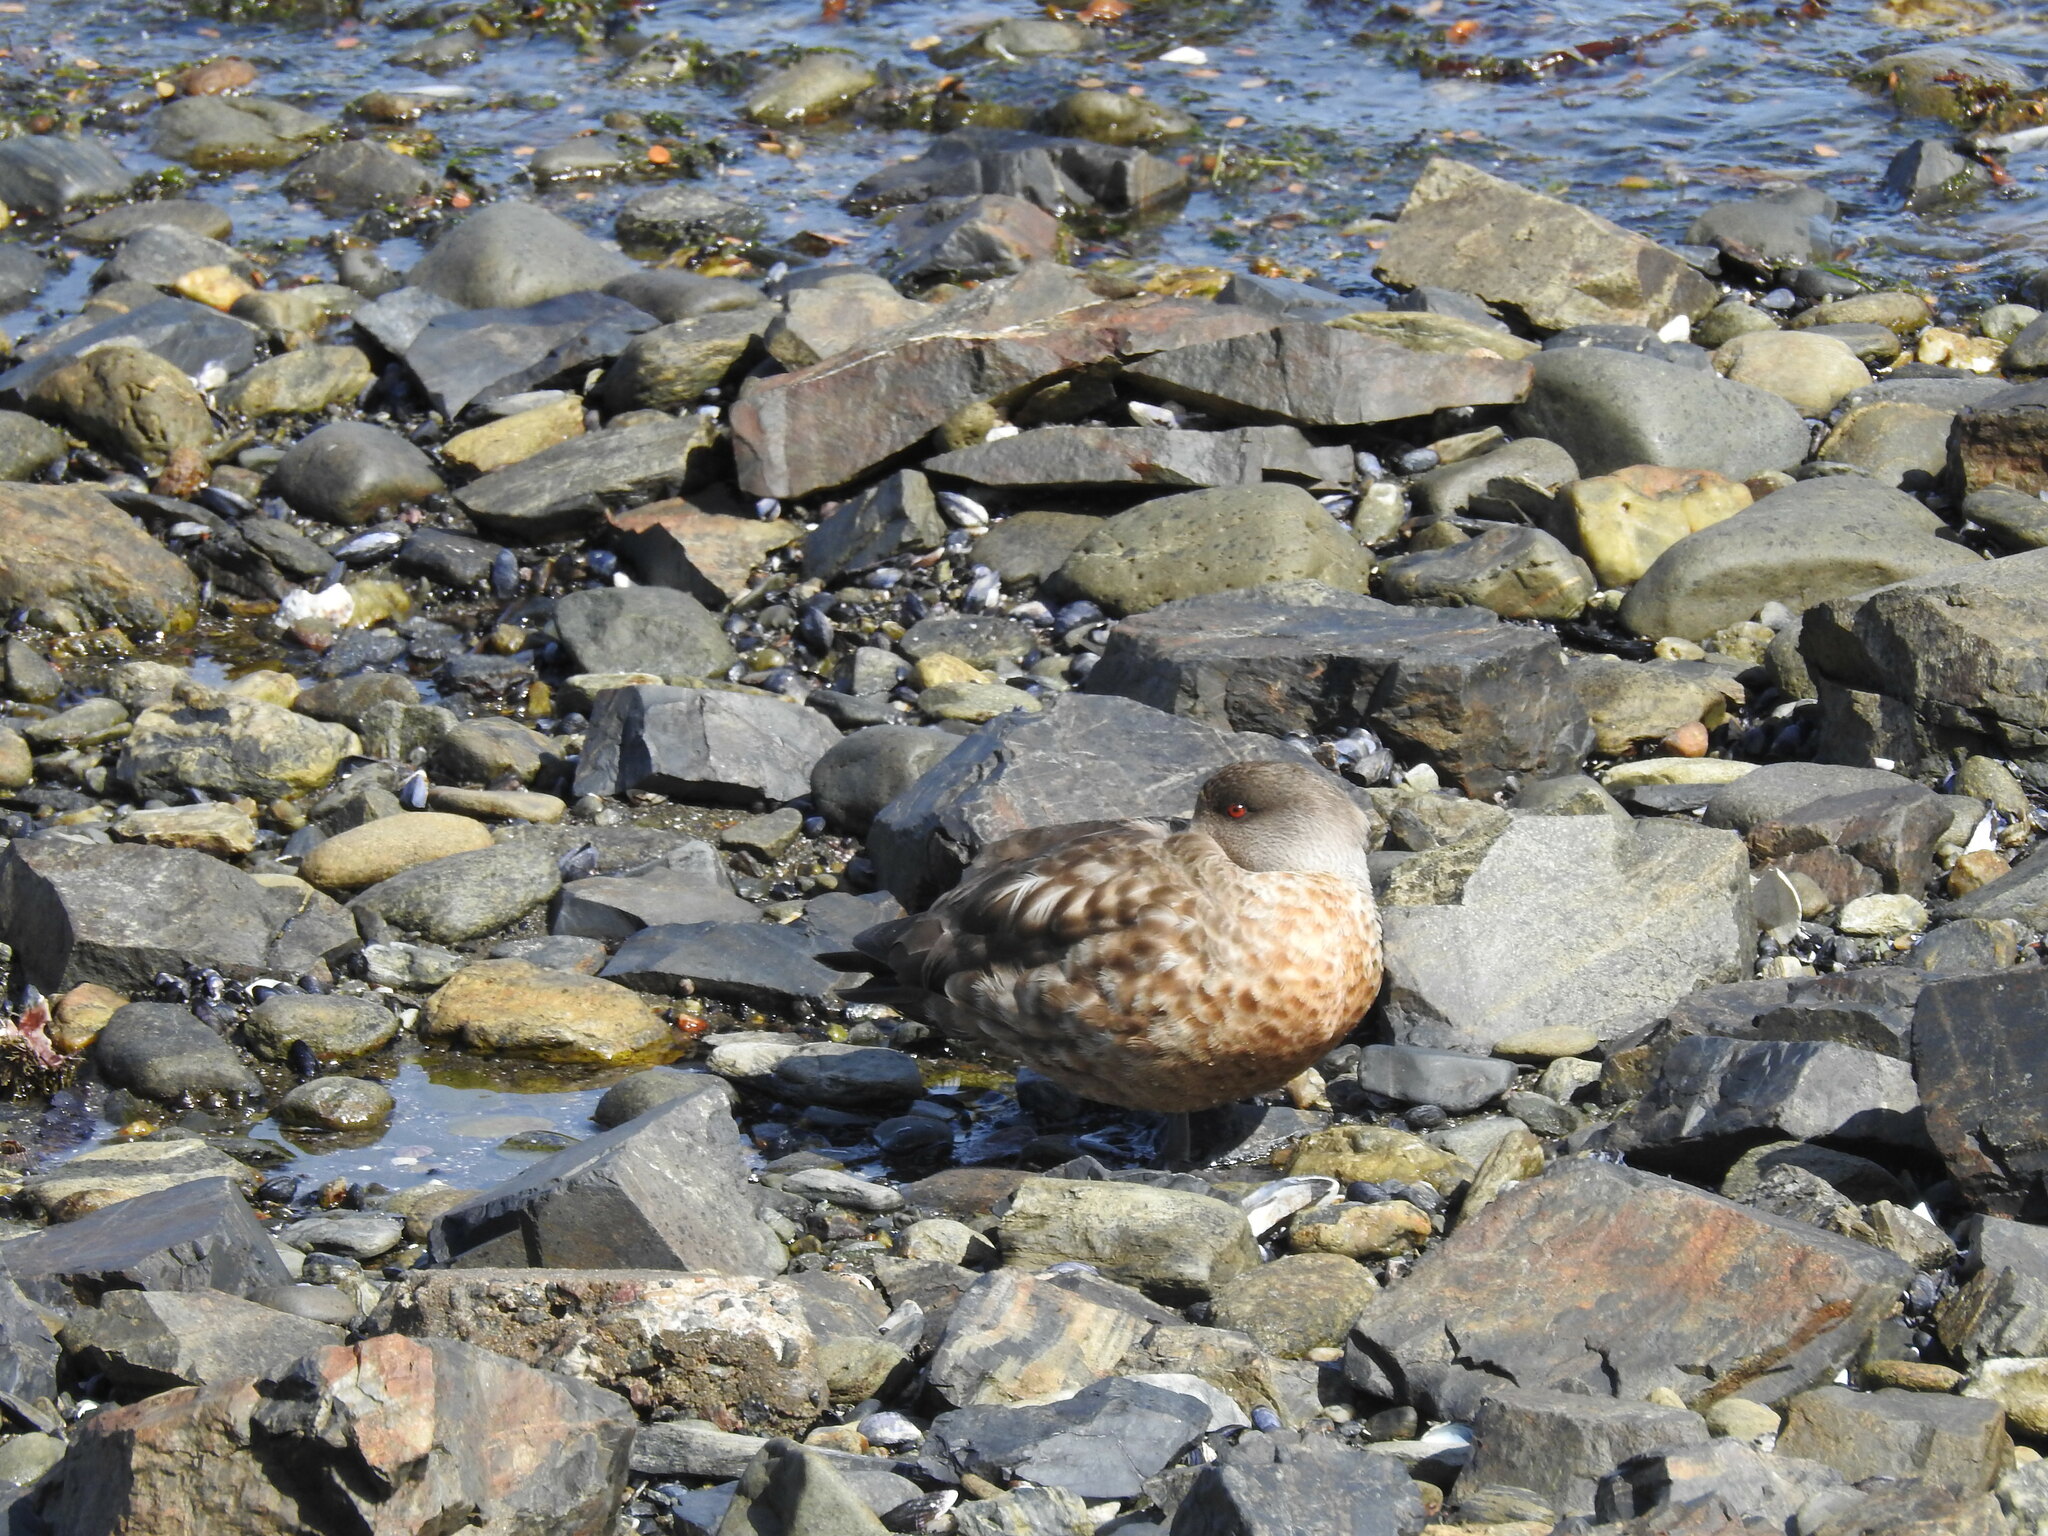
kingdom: Animalia
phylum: Chordata
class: Aves
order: Anseriformes
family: Anatidae
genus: Lophonetta
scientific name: Lophonetta specularioides
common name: Crested duck
